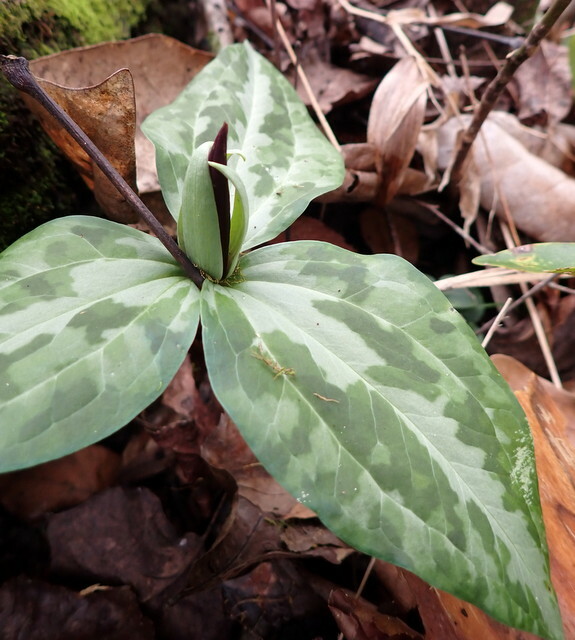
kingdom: Plantae
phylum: Tracheophyta
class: Liliopsida
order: Liliales
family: Melanthiaceae
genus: Trillium
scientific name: Trillium underwoodii
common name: Longbract wakerobin
